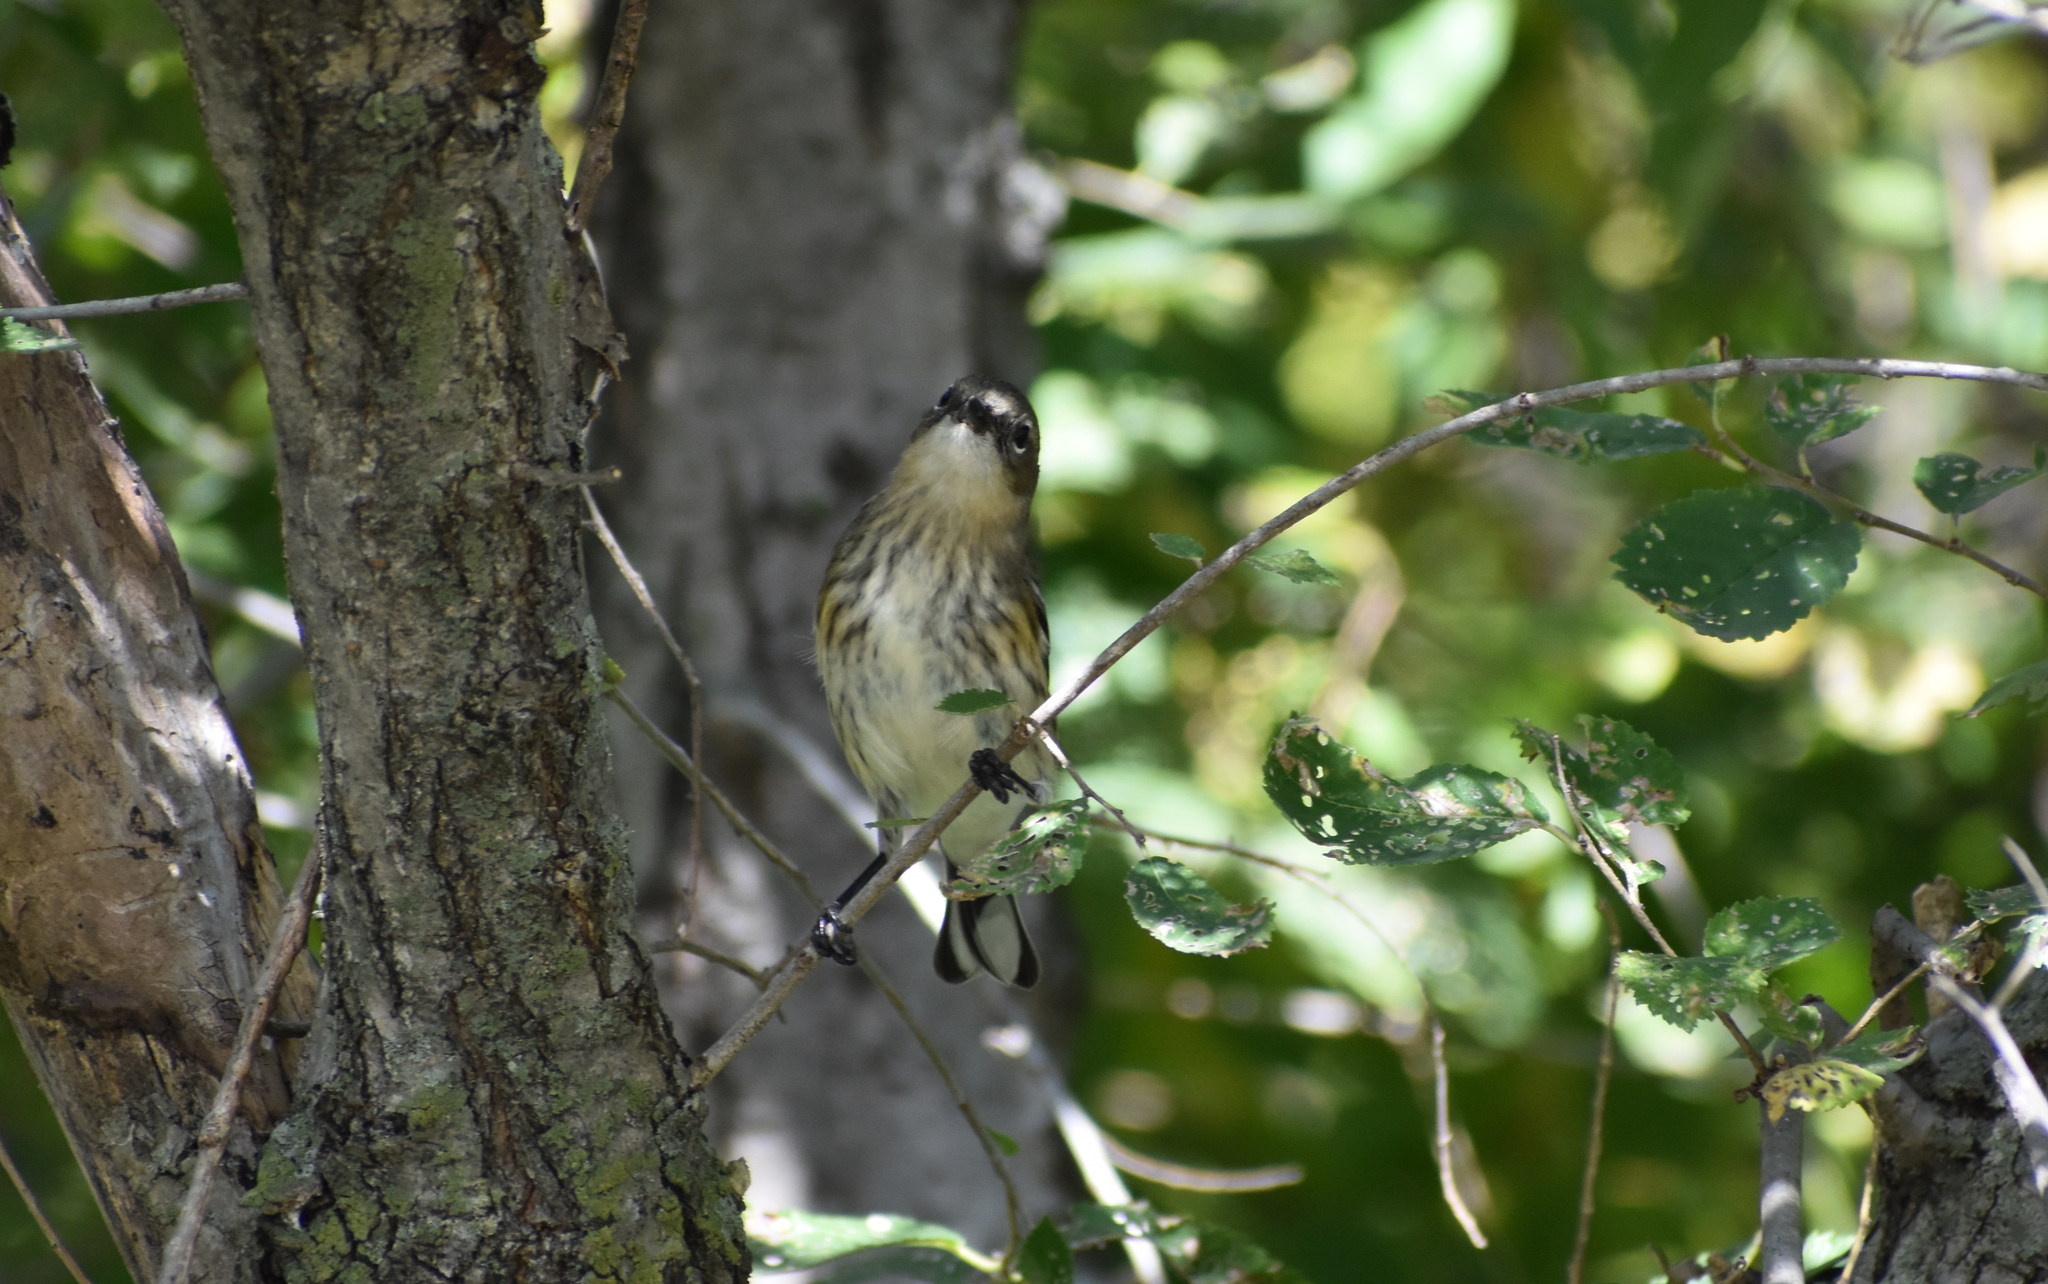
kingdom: Animalia
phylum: Chordata
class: Aves
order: Passeriformes
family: Parulidae
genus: Setophaga
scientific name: Setophaga coronata
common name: Myrtle warbler
